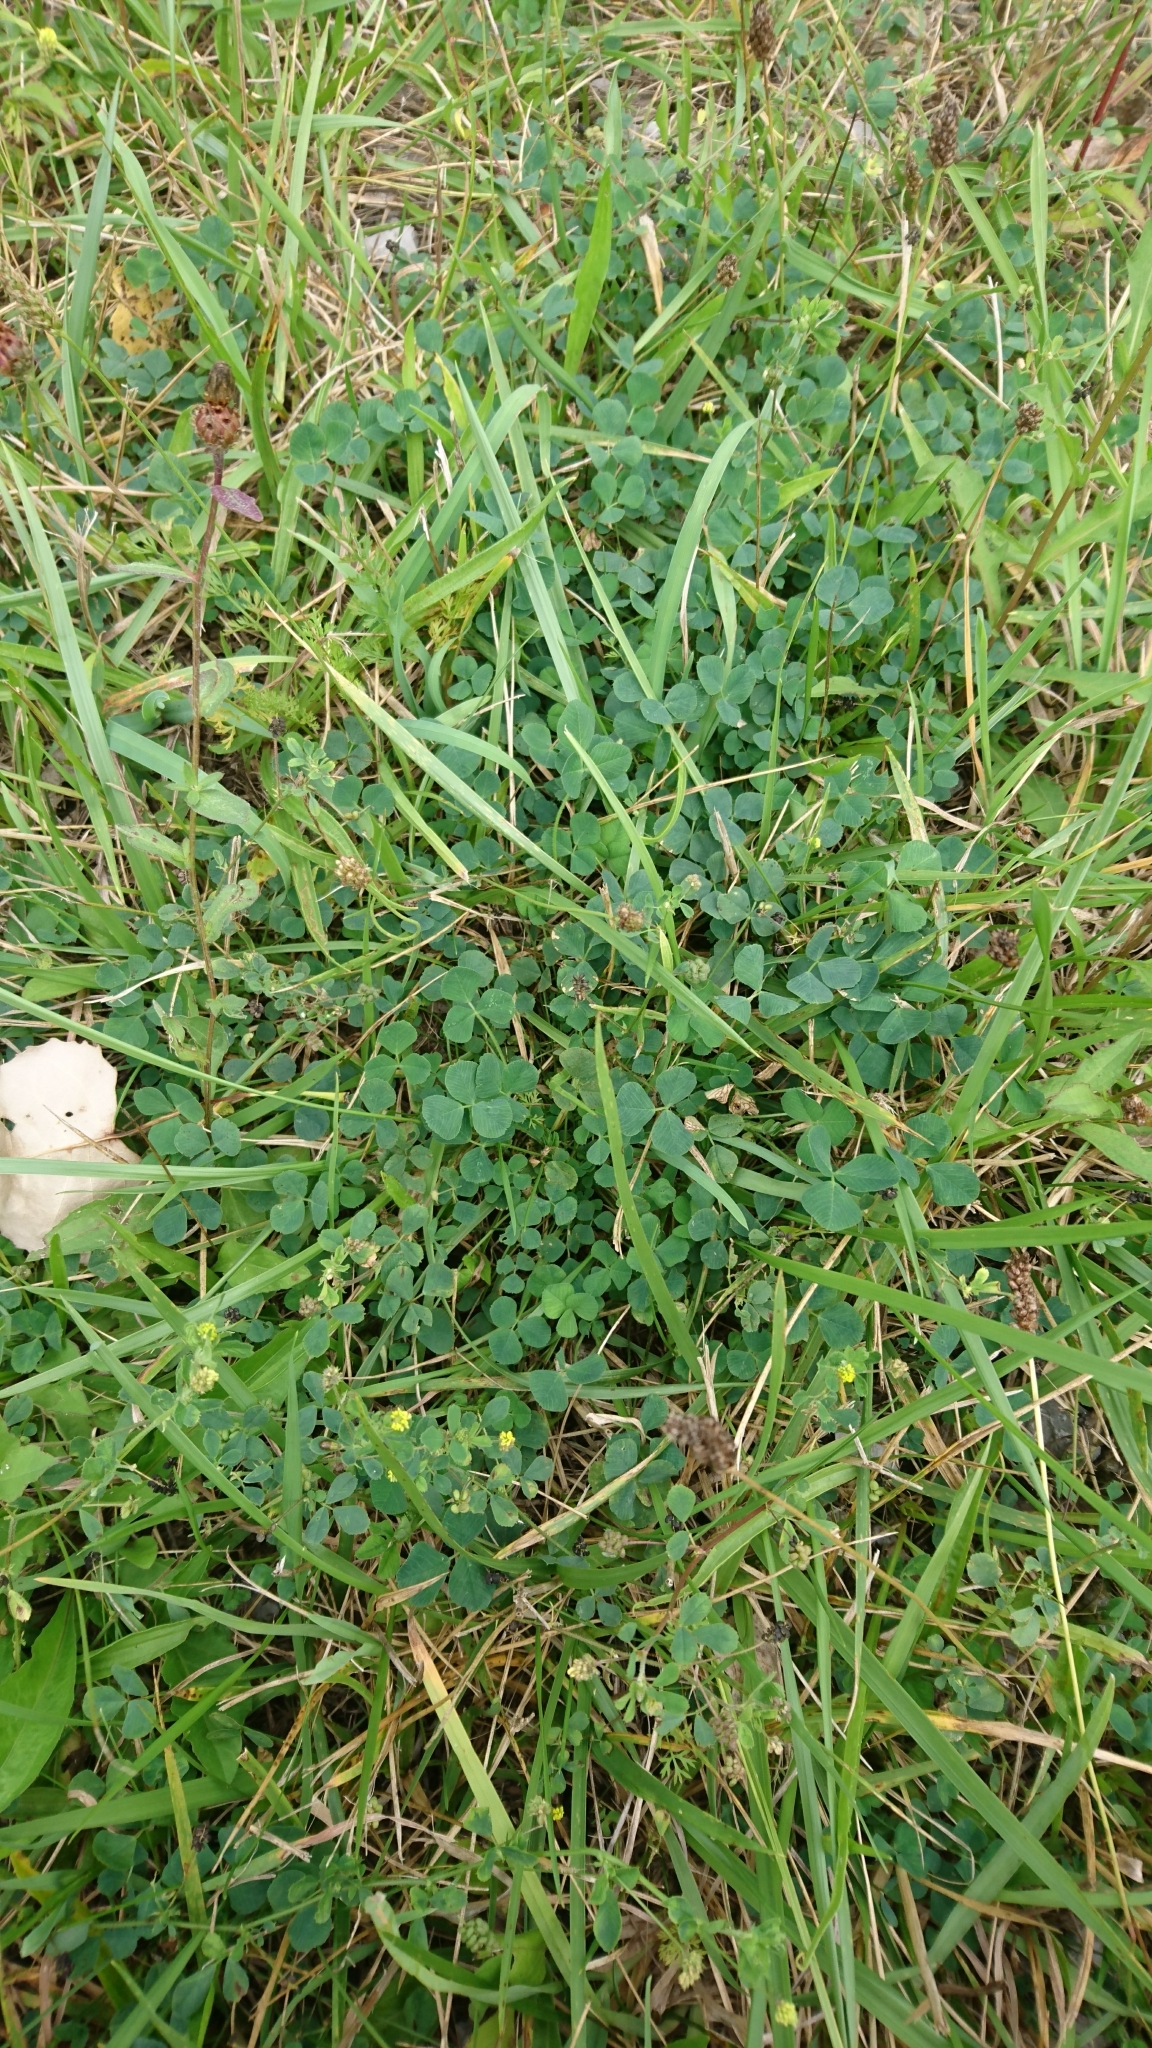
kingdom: Plantae
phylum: Tracheophyta
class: Magnoliopsida
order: Fabales
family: Fabaceae
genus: Medicago
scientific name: Medicago lupulina
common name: Black medick
